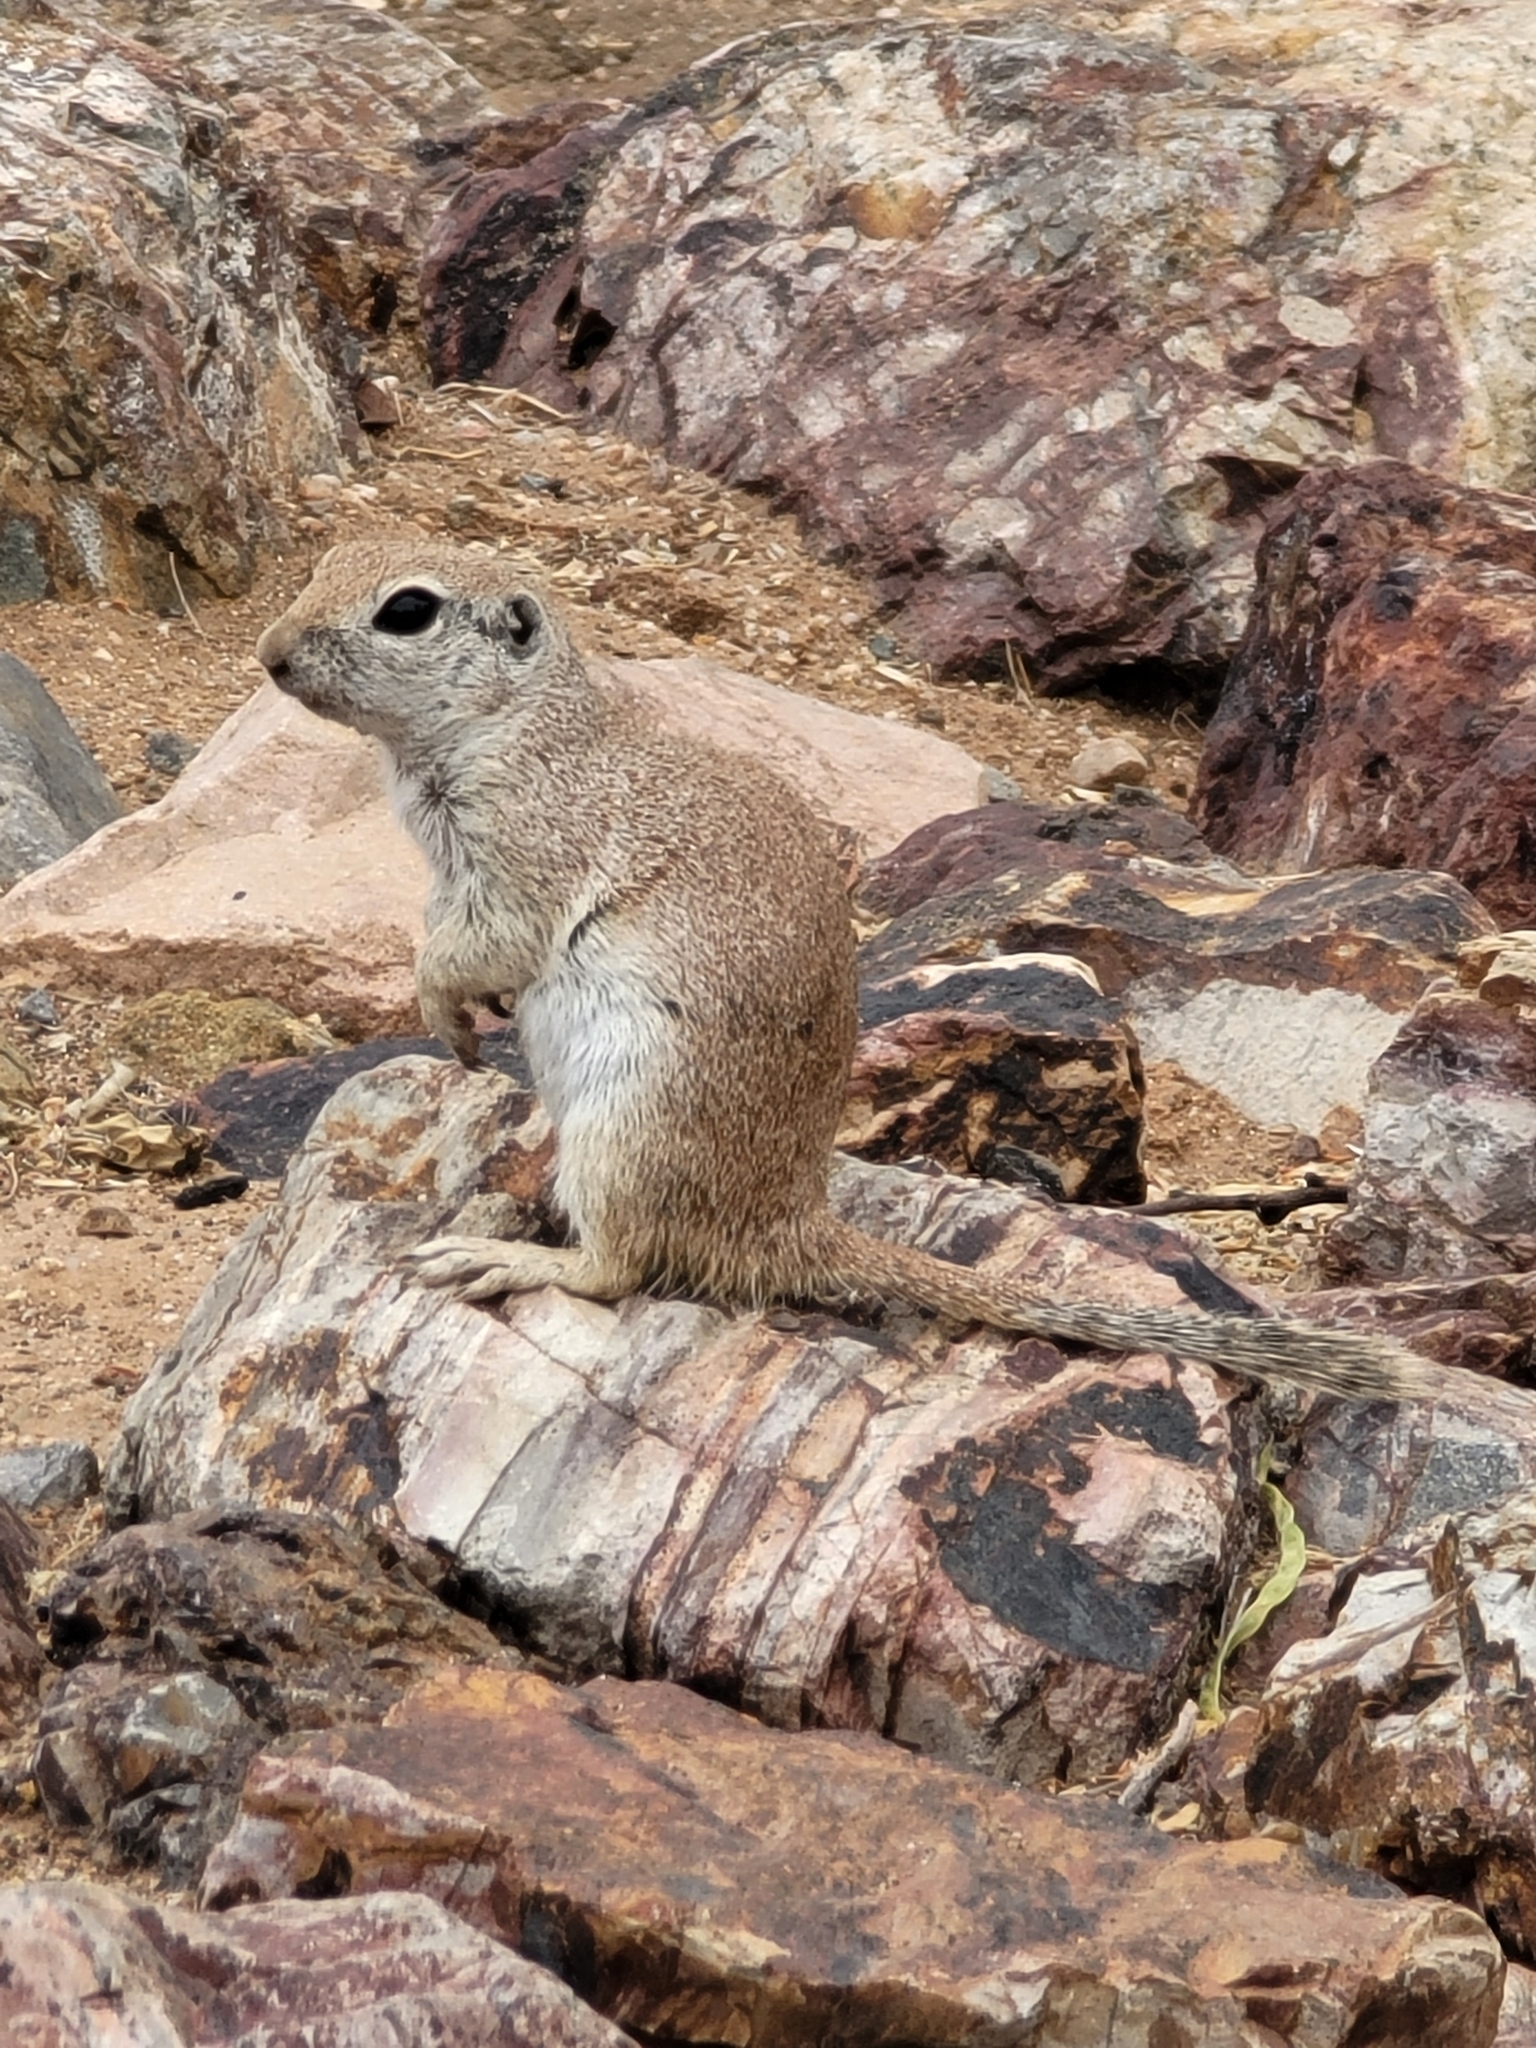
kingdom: Animalia
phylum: Chordata
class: Mammalia
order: Rodentia
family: Sciuridae
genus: Xerospermophilus
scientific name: Xerospermophilus tereticaudus
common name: Round-tailed ground squirrel
